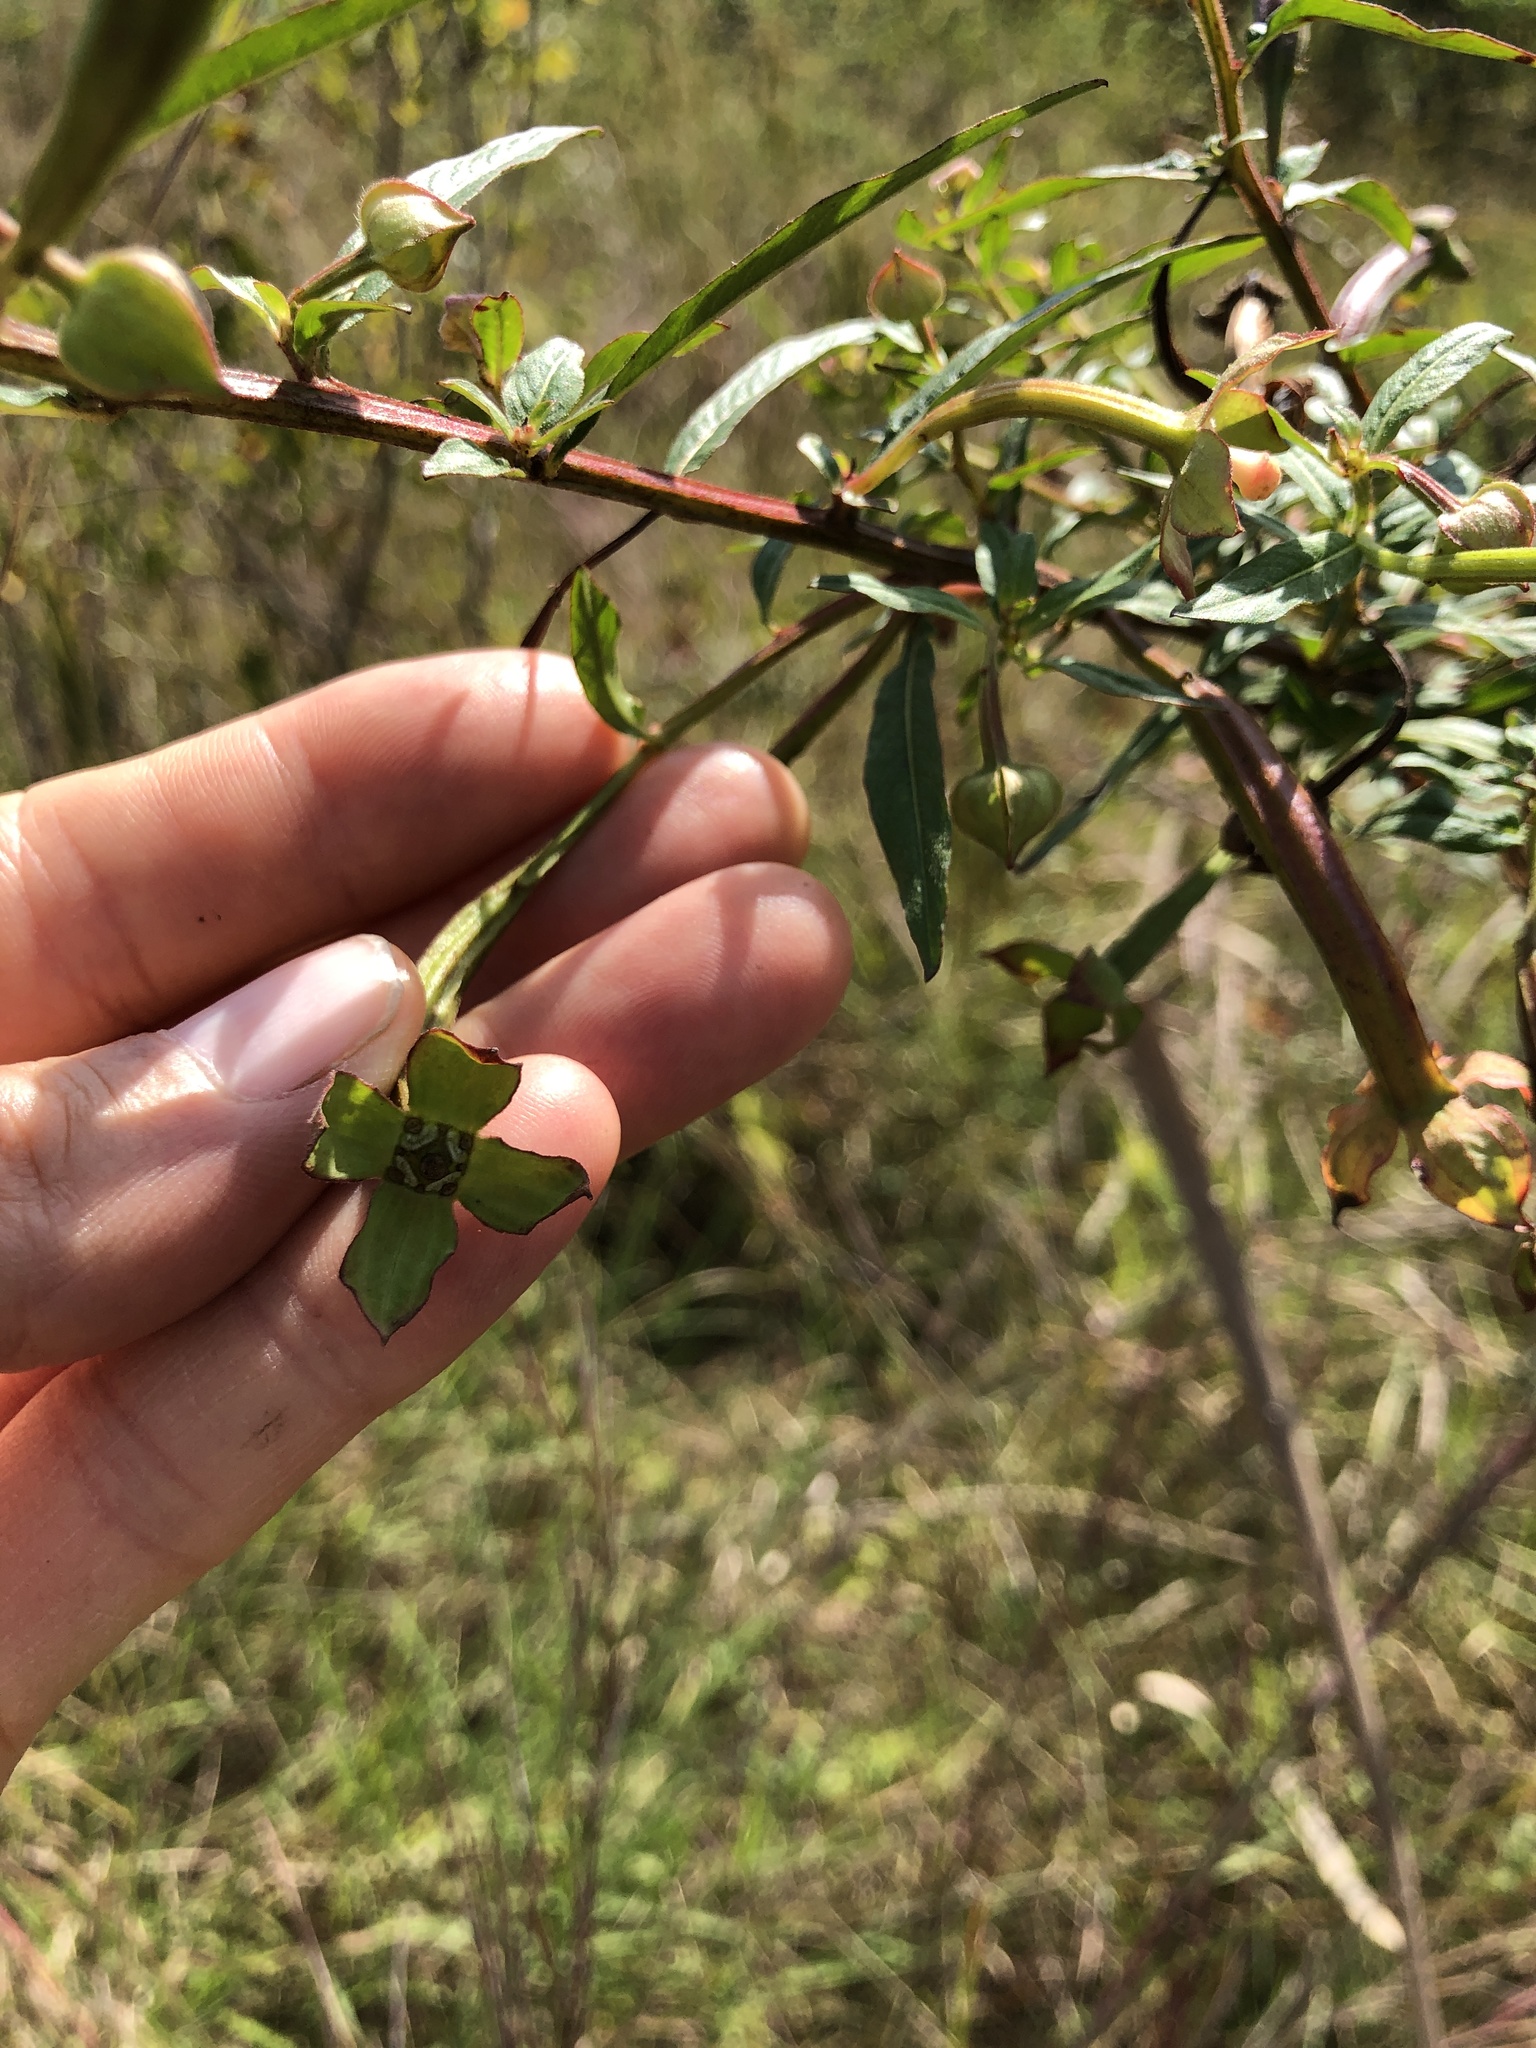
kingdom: Plantae
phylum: Tracheophyta
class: Magnoliopsida
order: Myrtales
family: Onagraceae
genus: Ludwigia
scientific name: Ludwigia octovalvis
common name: Water-primrose
